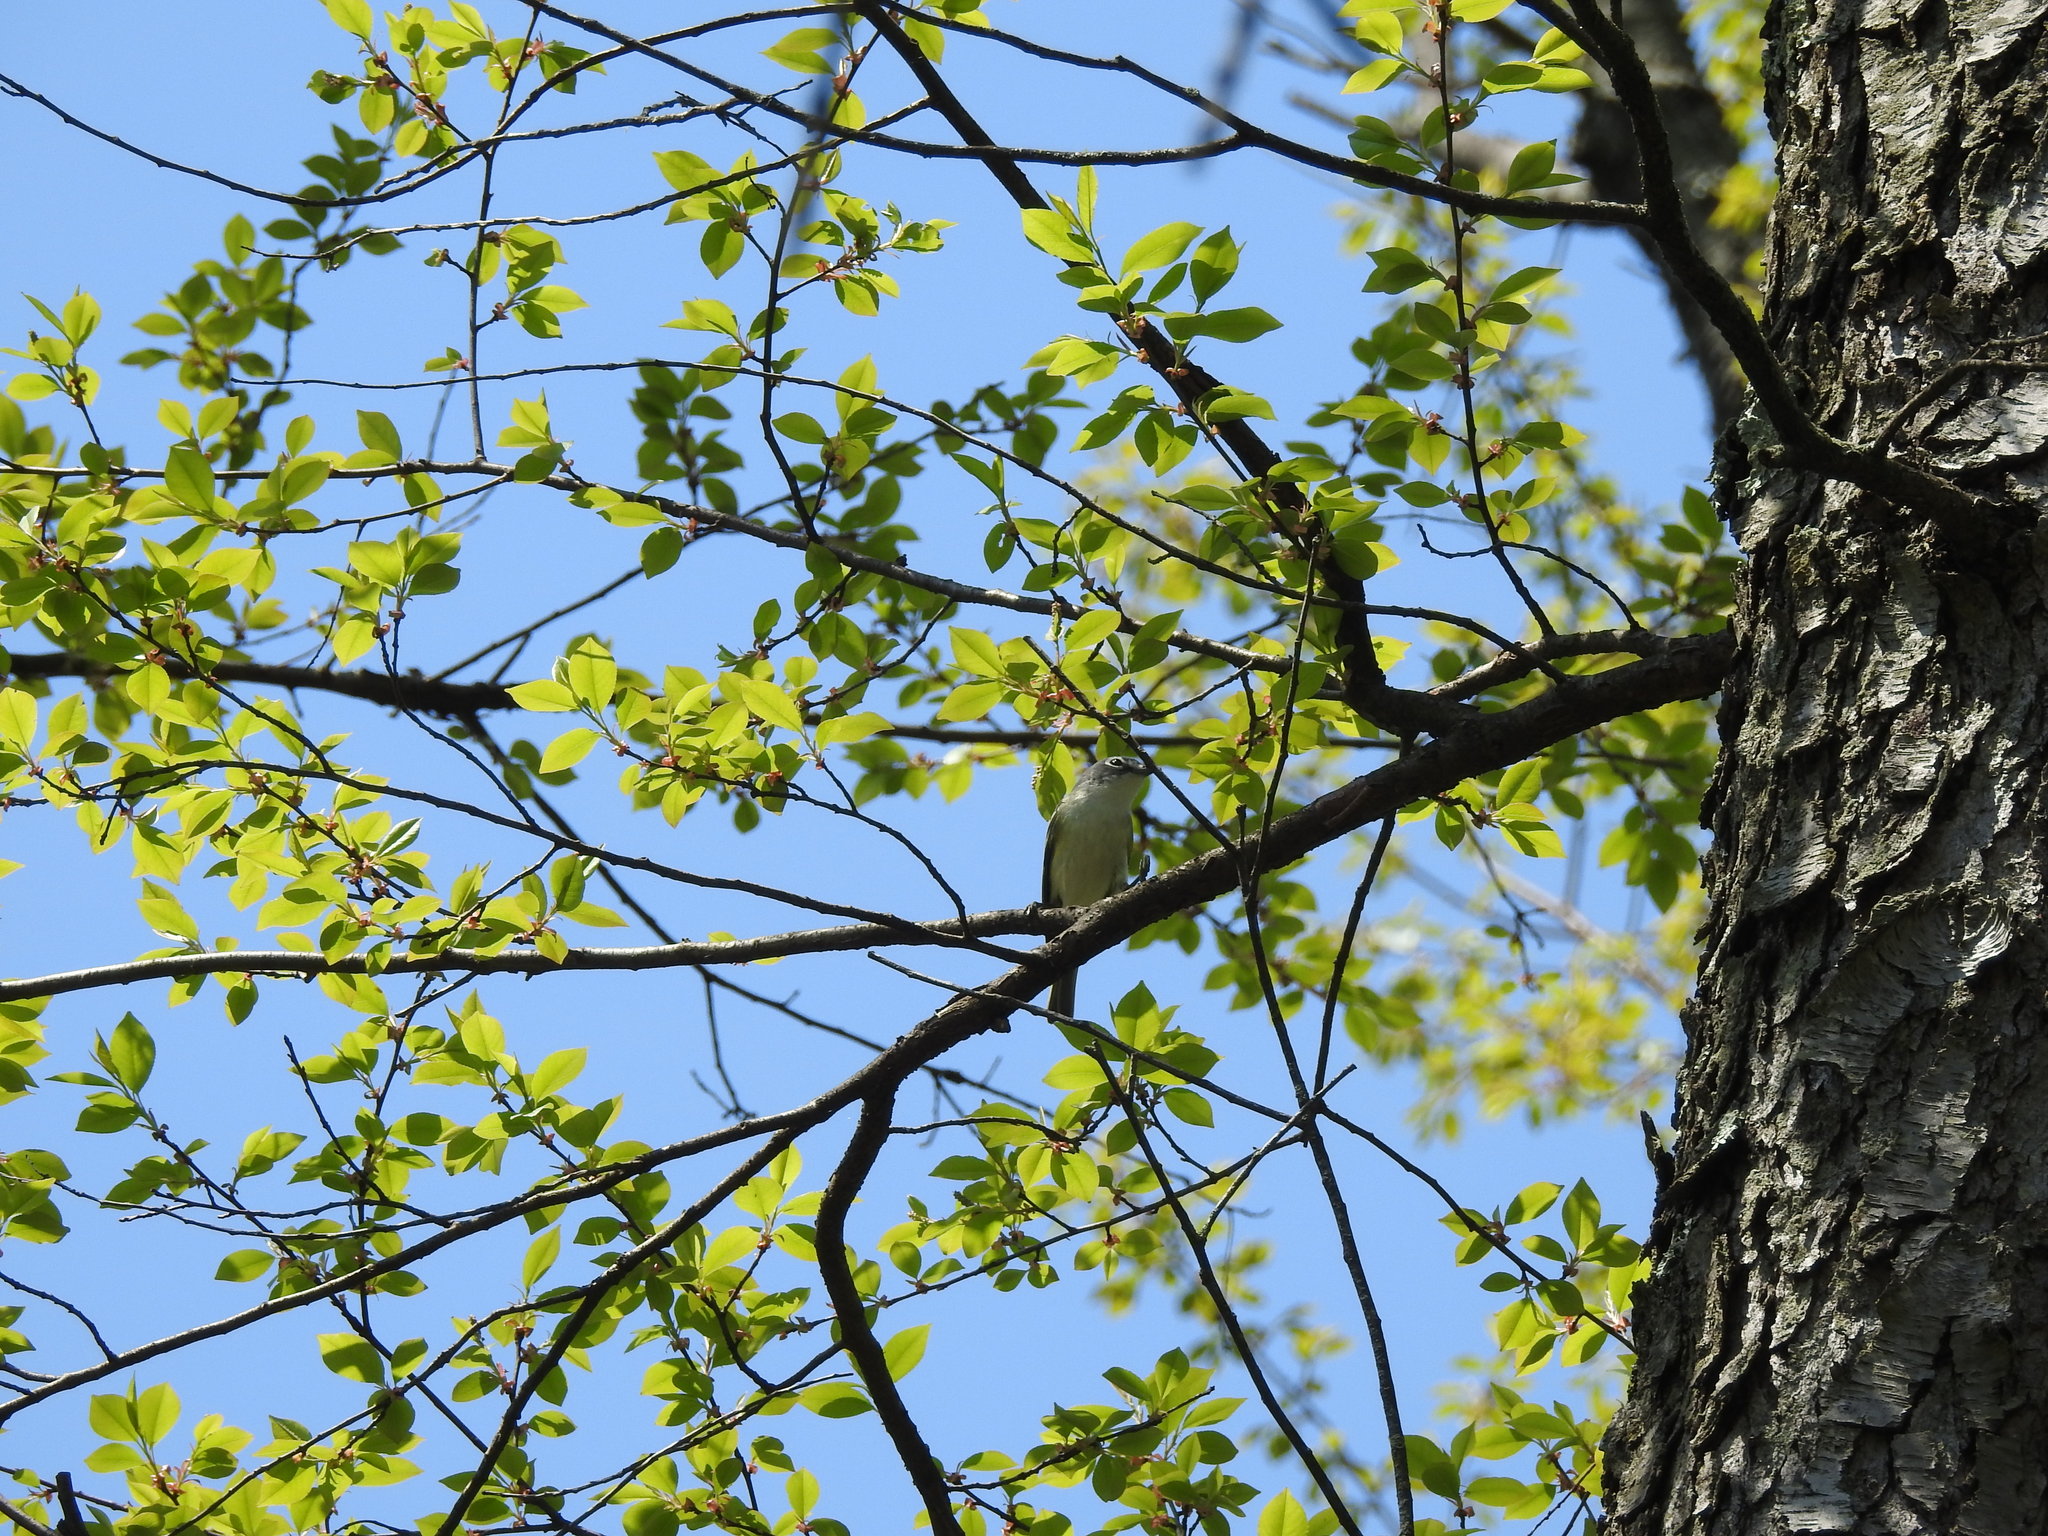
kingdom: Animalia
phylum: Chordata
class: Aves
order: Passeriformes
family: Vireonidae
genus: Vireo
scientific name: Vireo solitarius
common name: Blue-headed vireo
